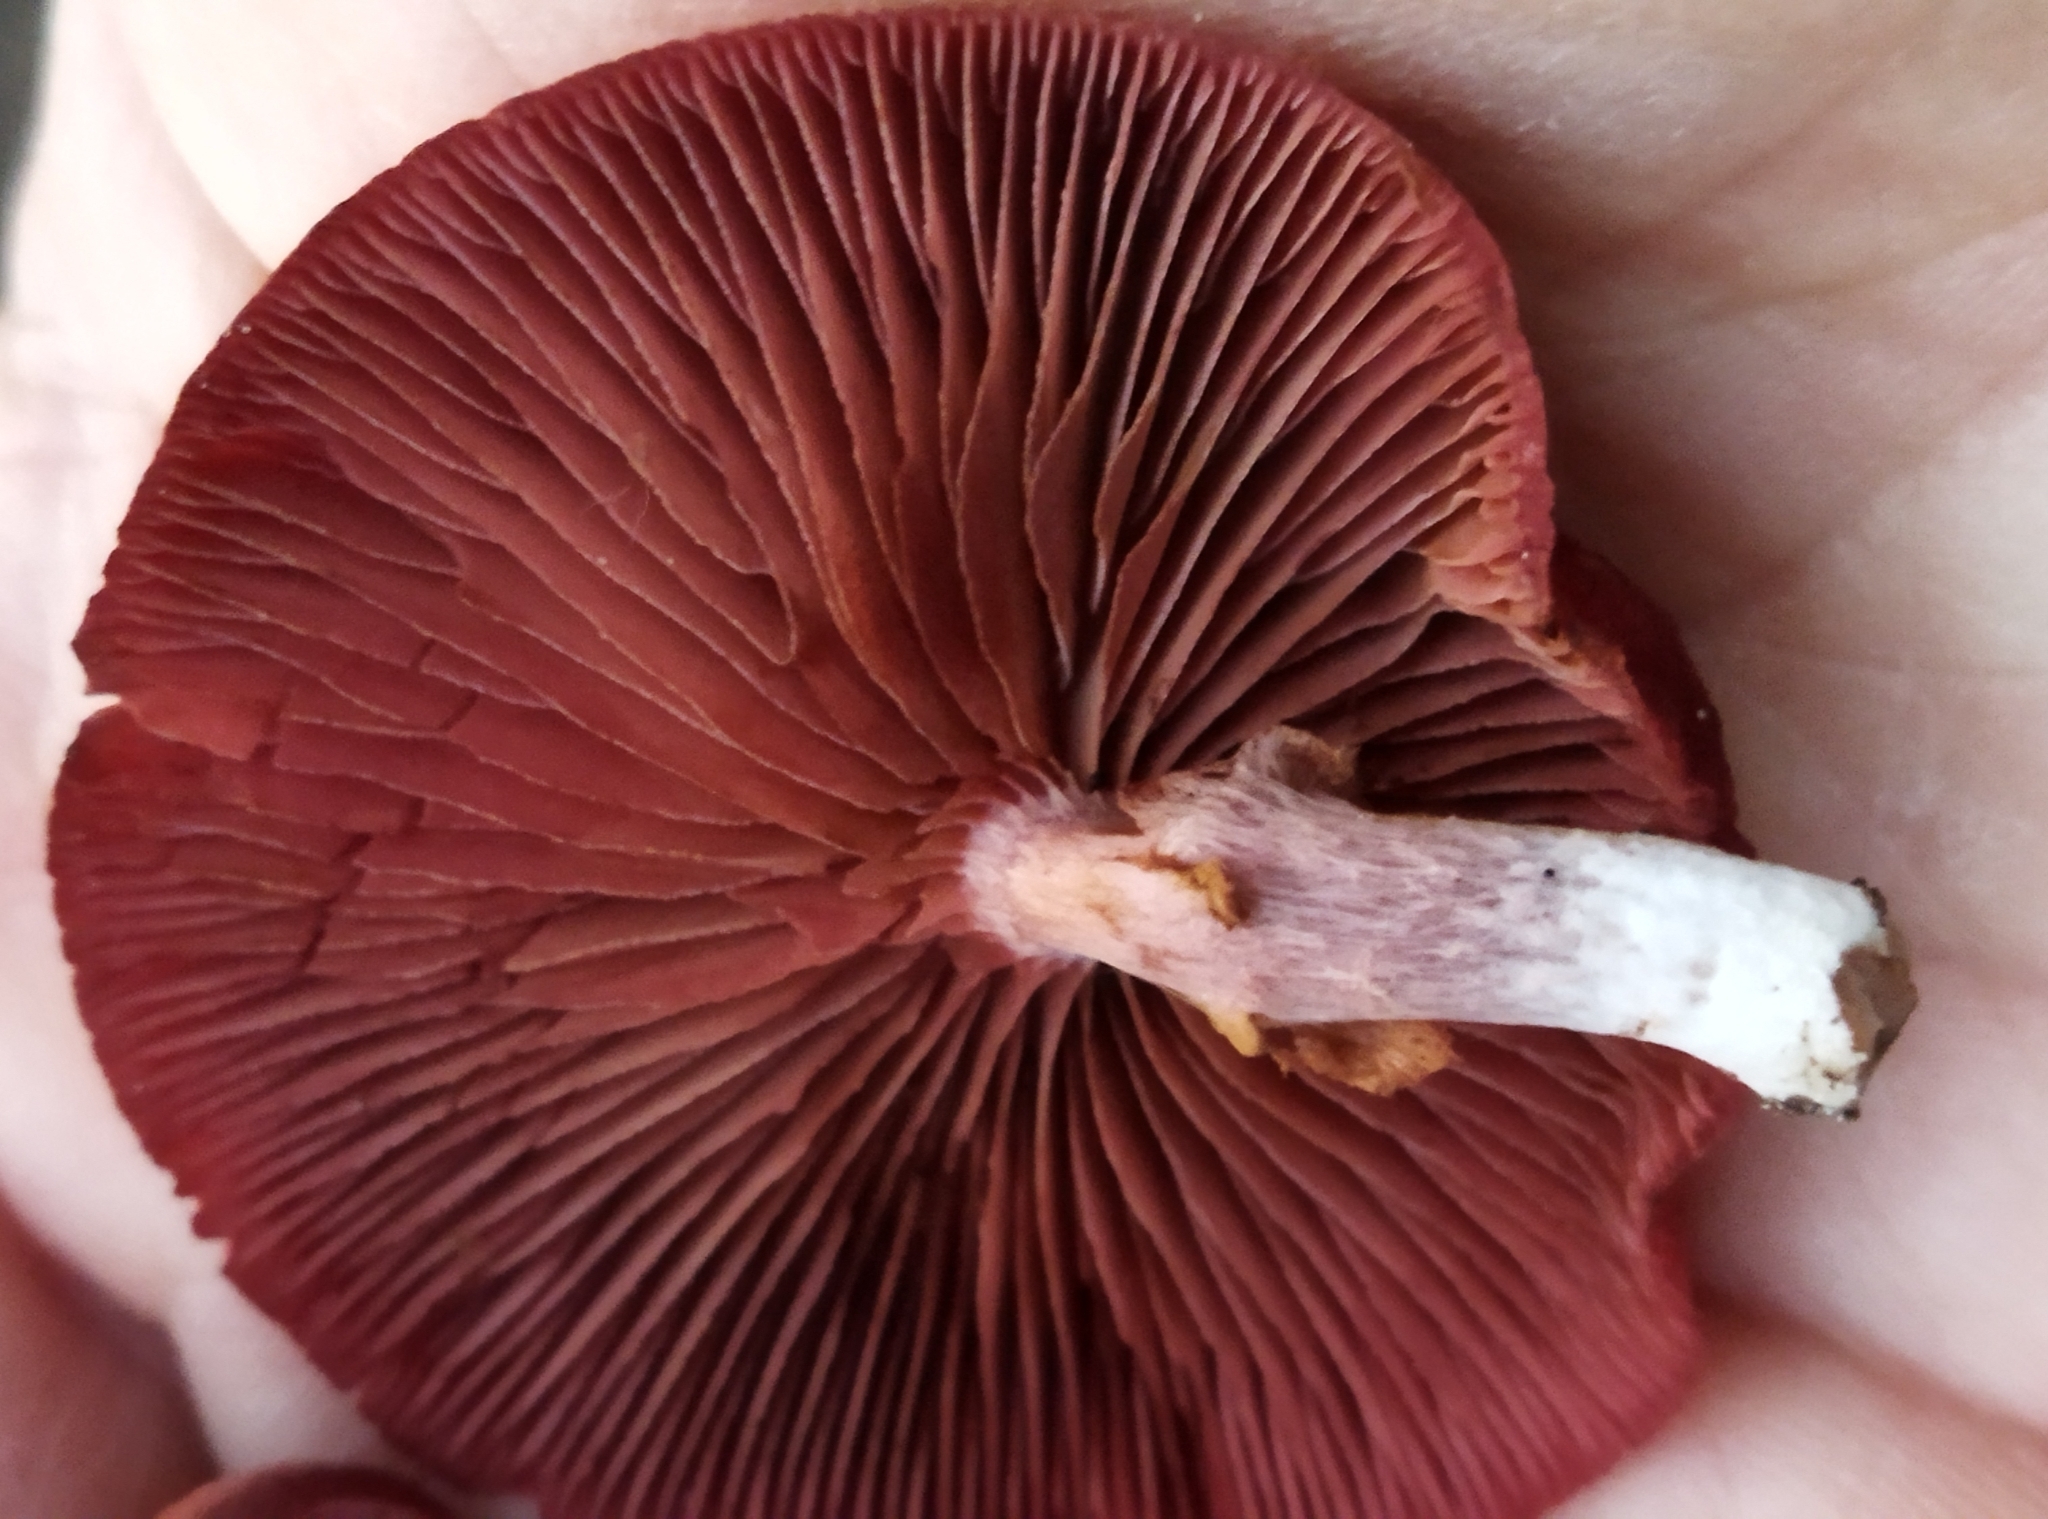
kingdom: Fungi
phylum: Basidiomycota
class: Agaricomycetes
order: Agaricales
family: Tubariaceae
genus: Tubaria
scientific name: Tubaria rufofulva
